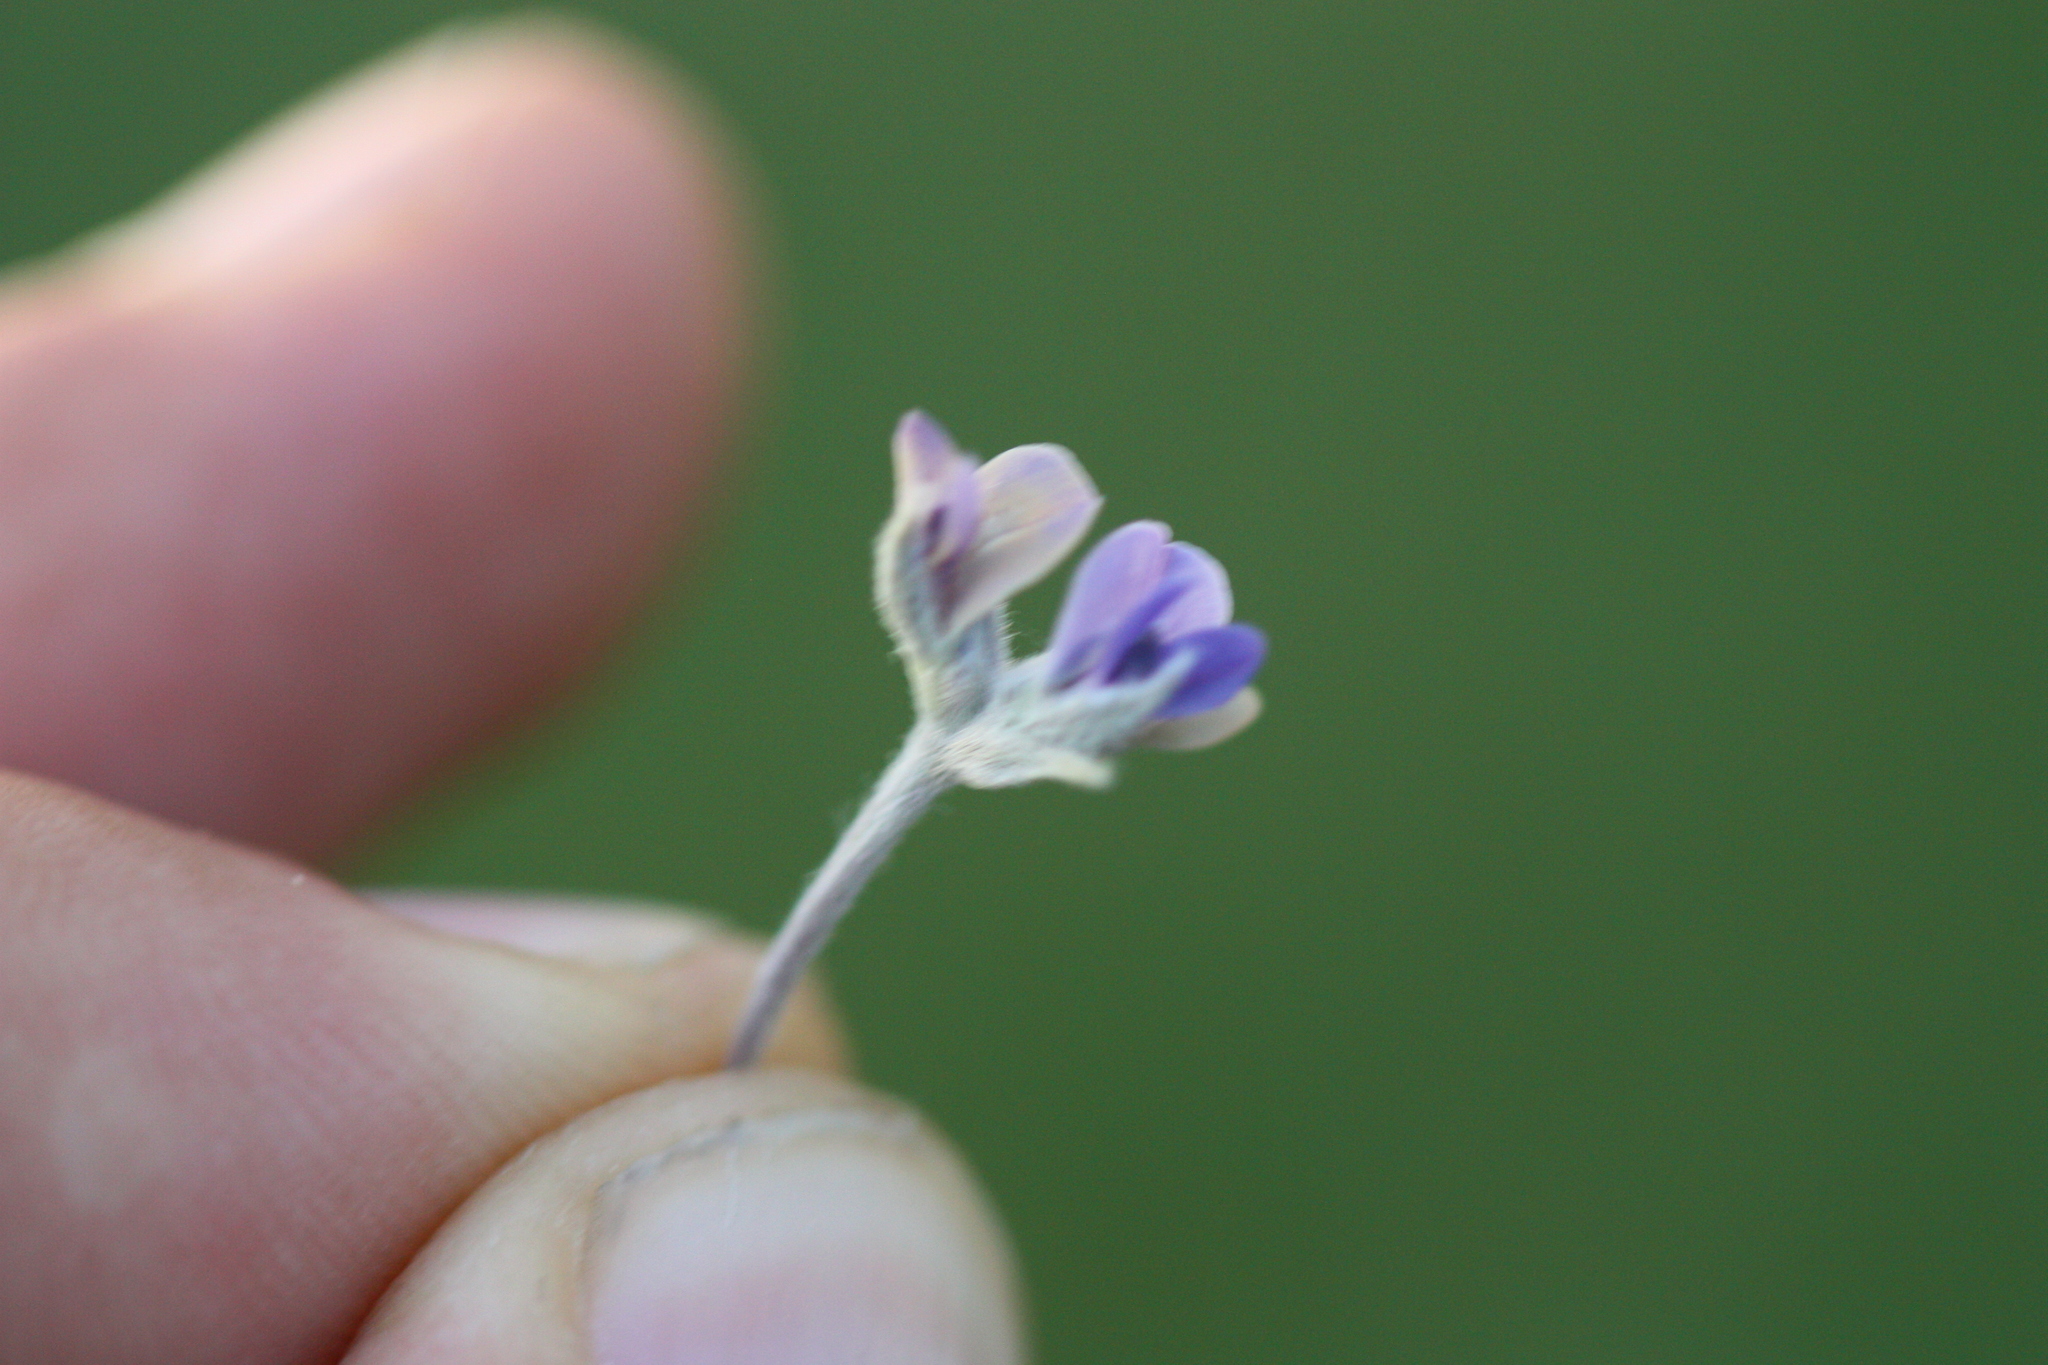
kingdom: Plantae
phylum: Tracheophyta
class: Magnoliopsida
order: Fabales
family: Fabaceae
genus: Pediomelum
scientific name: Pediomelum argophyllum
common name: Silver-leaved indian breadroot
